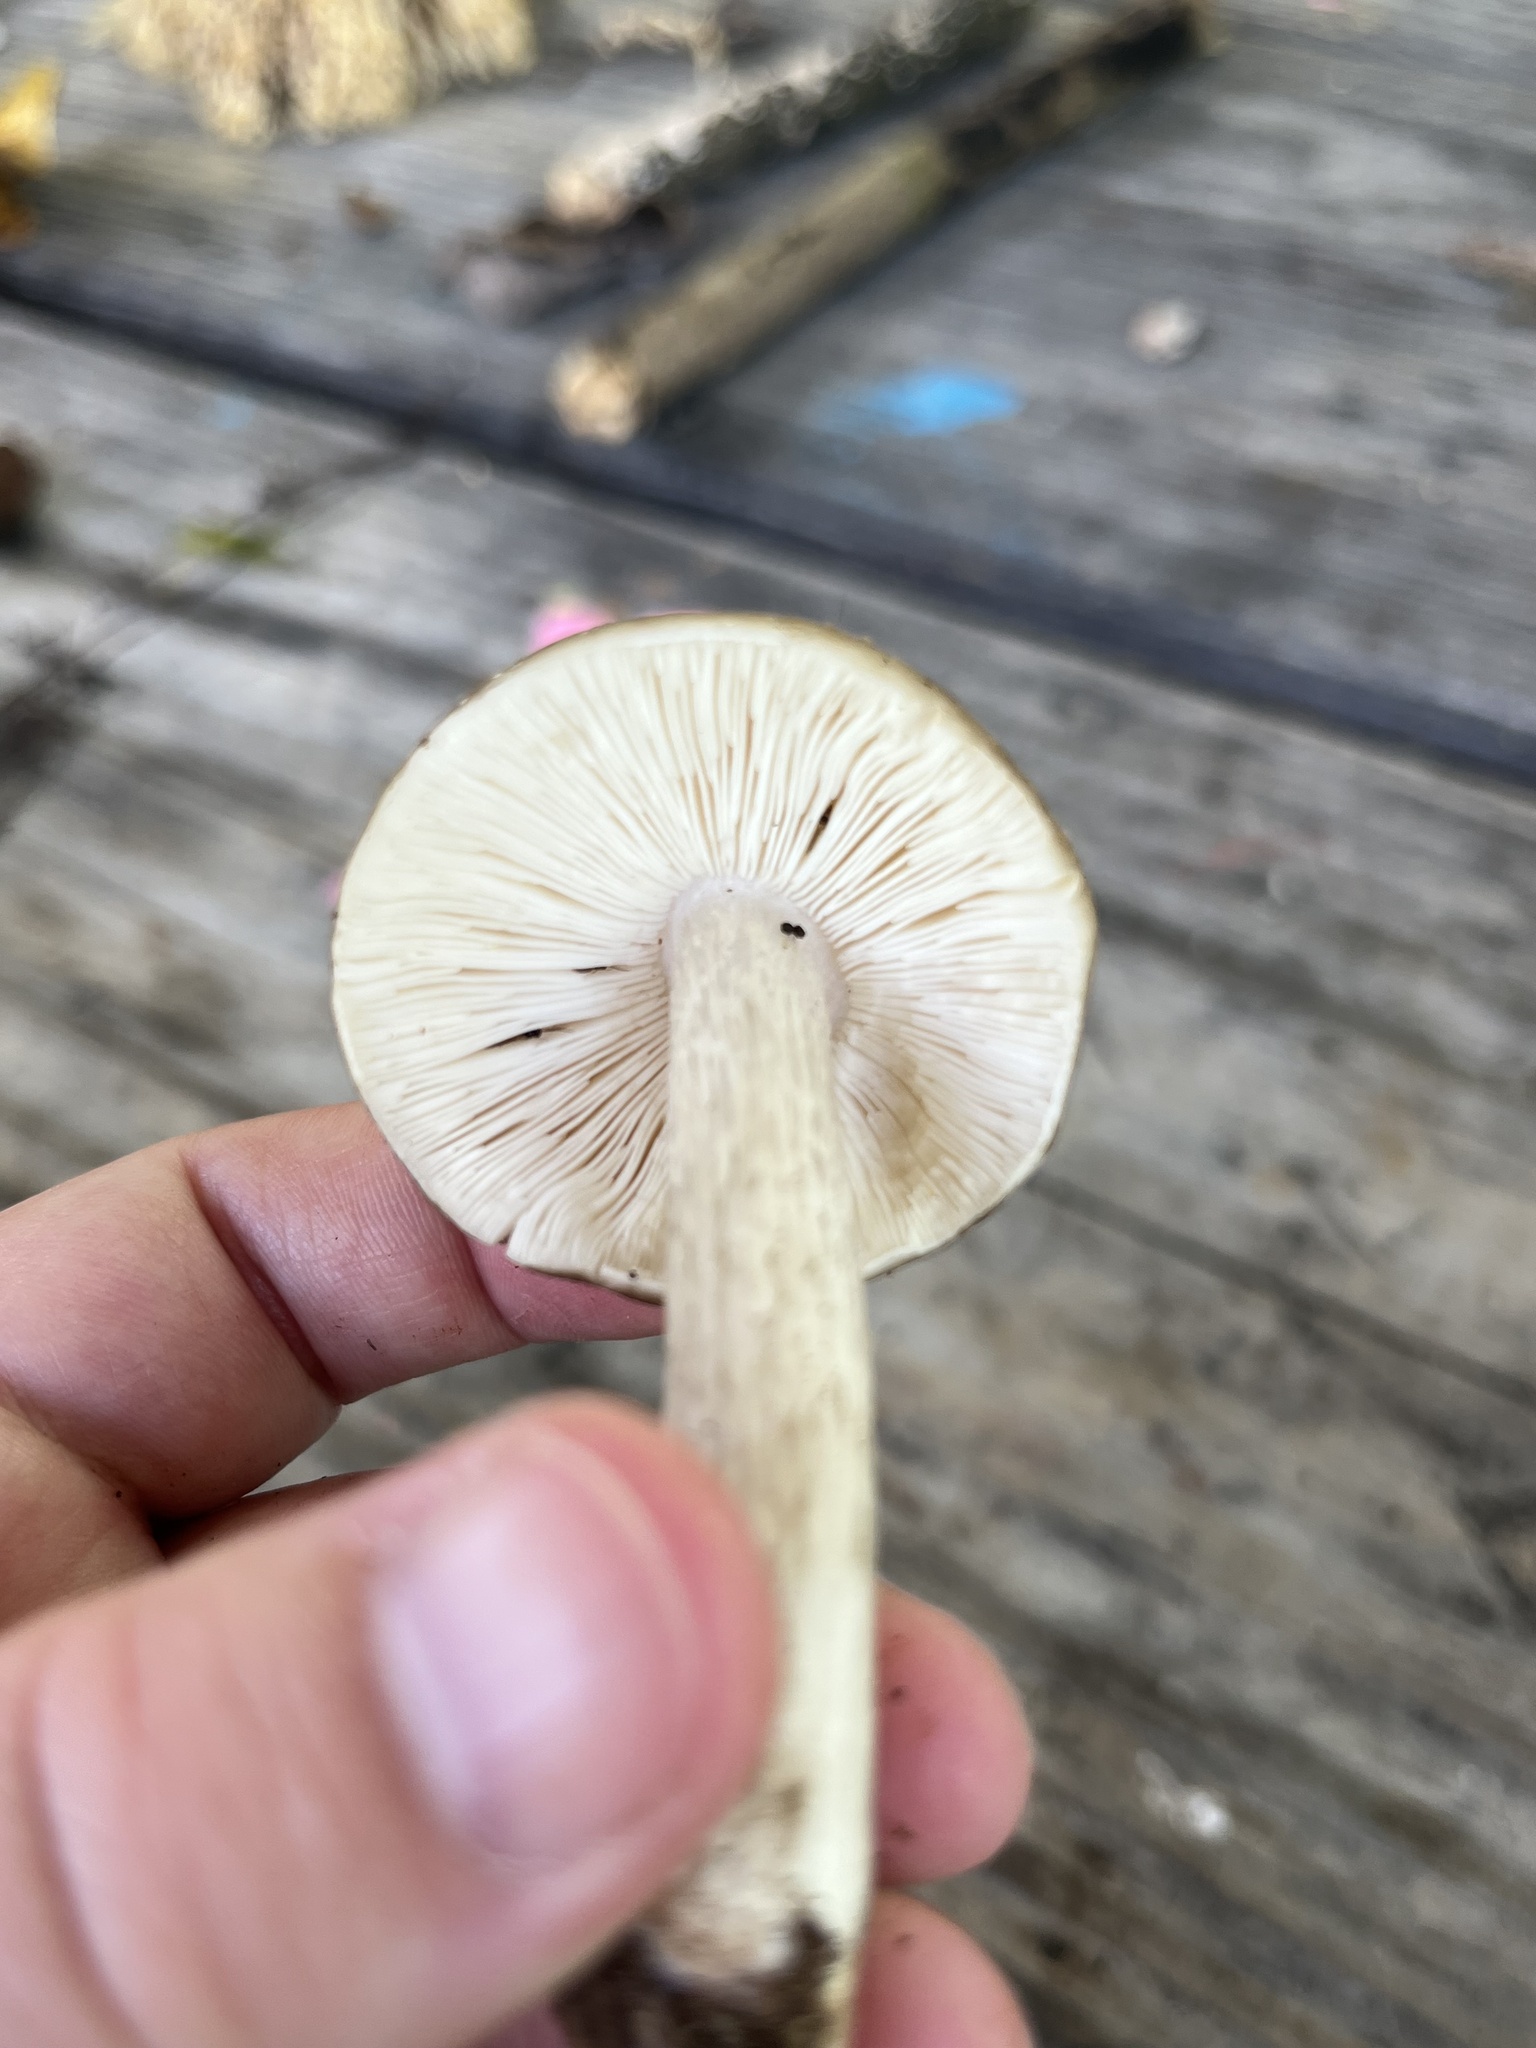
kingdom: Fungi
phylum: Basidiomycota
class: Agaricomycetes
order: Agaricales
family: Pluteaceae
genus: Pluteus
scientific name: Pluteus cervinus
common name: Deer shield
